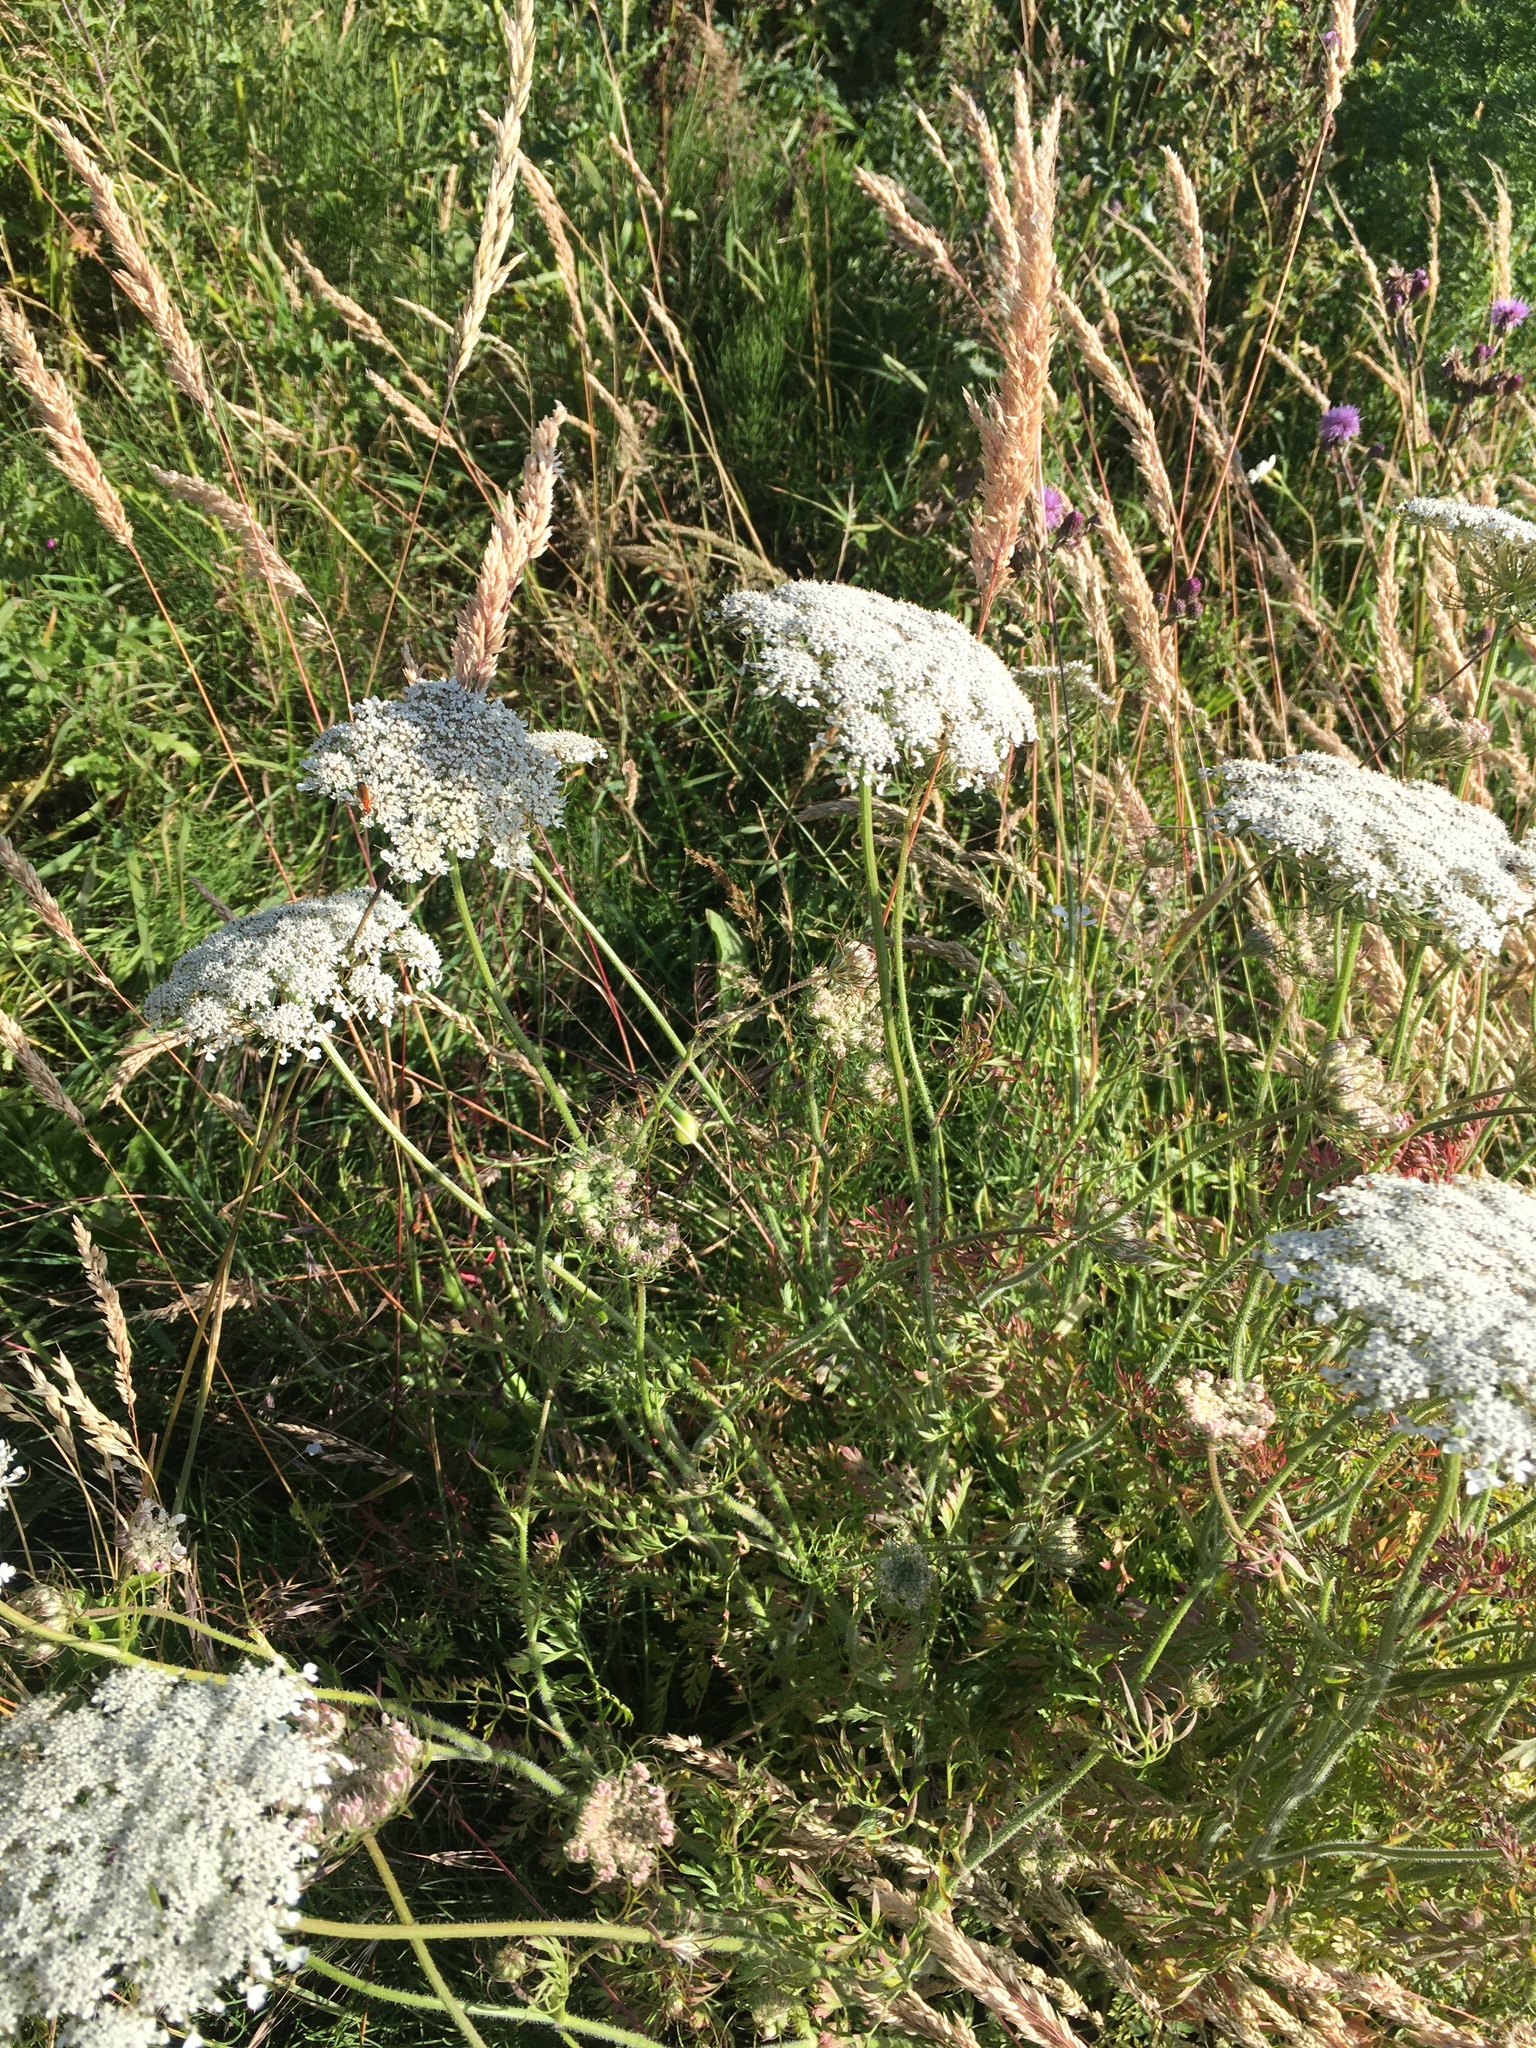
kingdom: Plantae
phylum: Tracheophyta
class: Magnoliopsida
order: Apiales
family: Apiaceae
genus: Daucus
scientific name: Daucus carota
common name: Wild carrot
